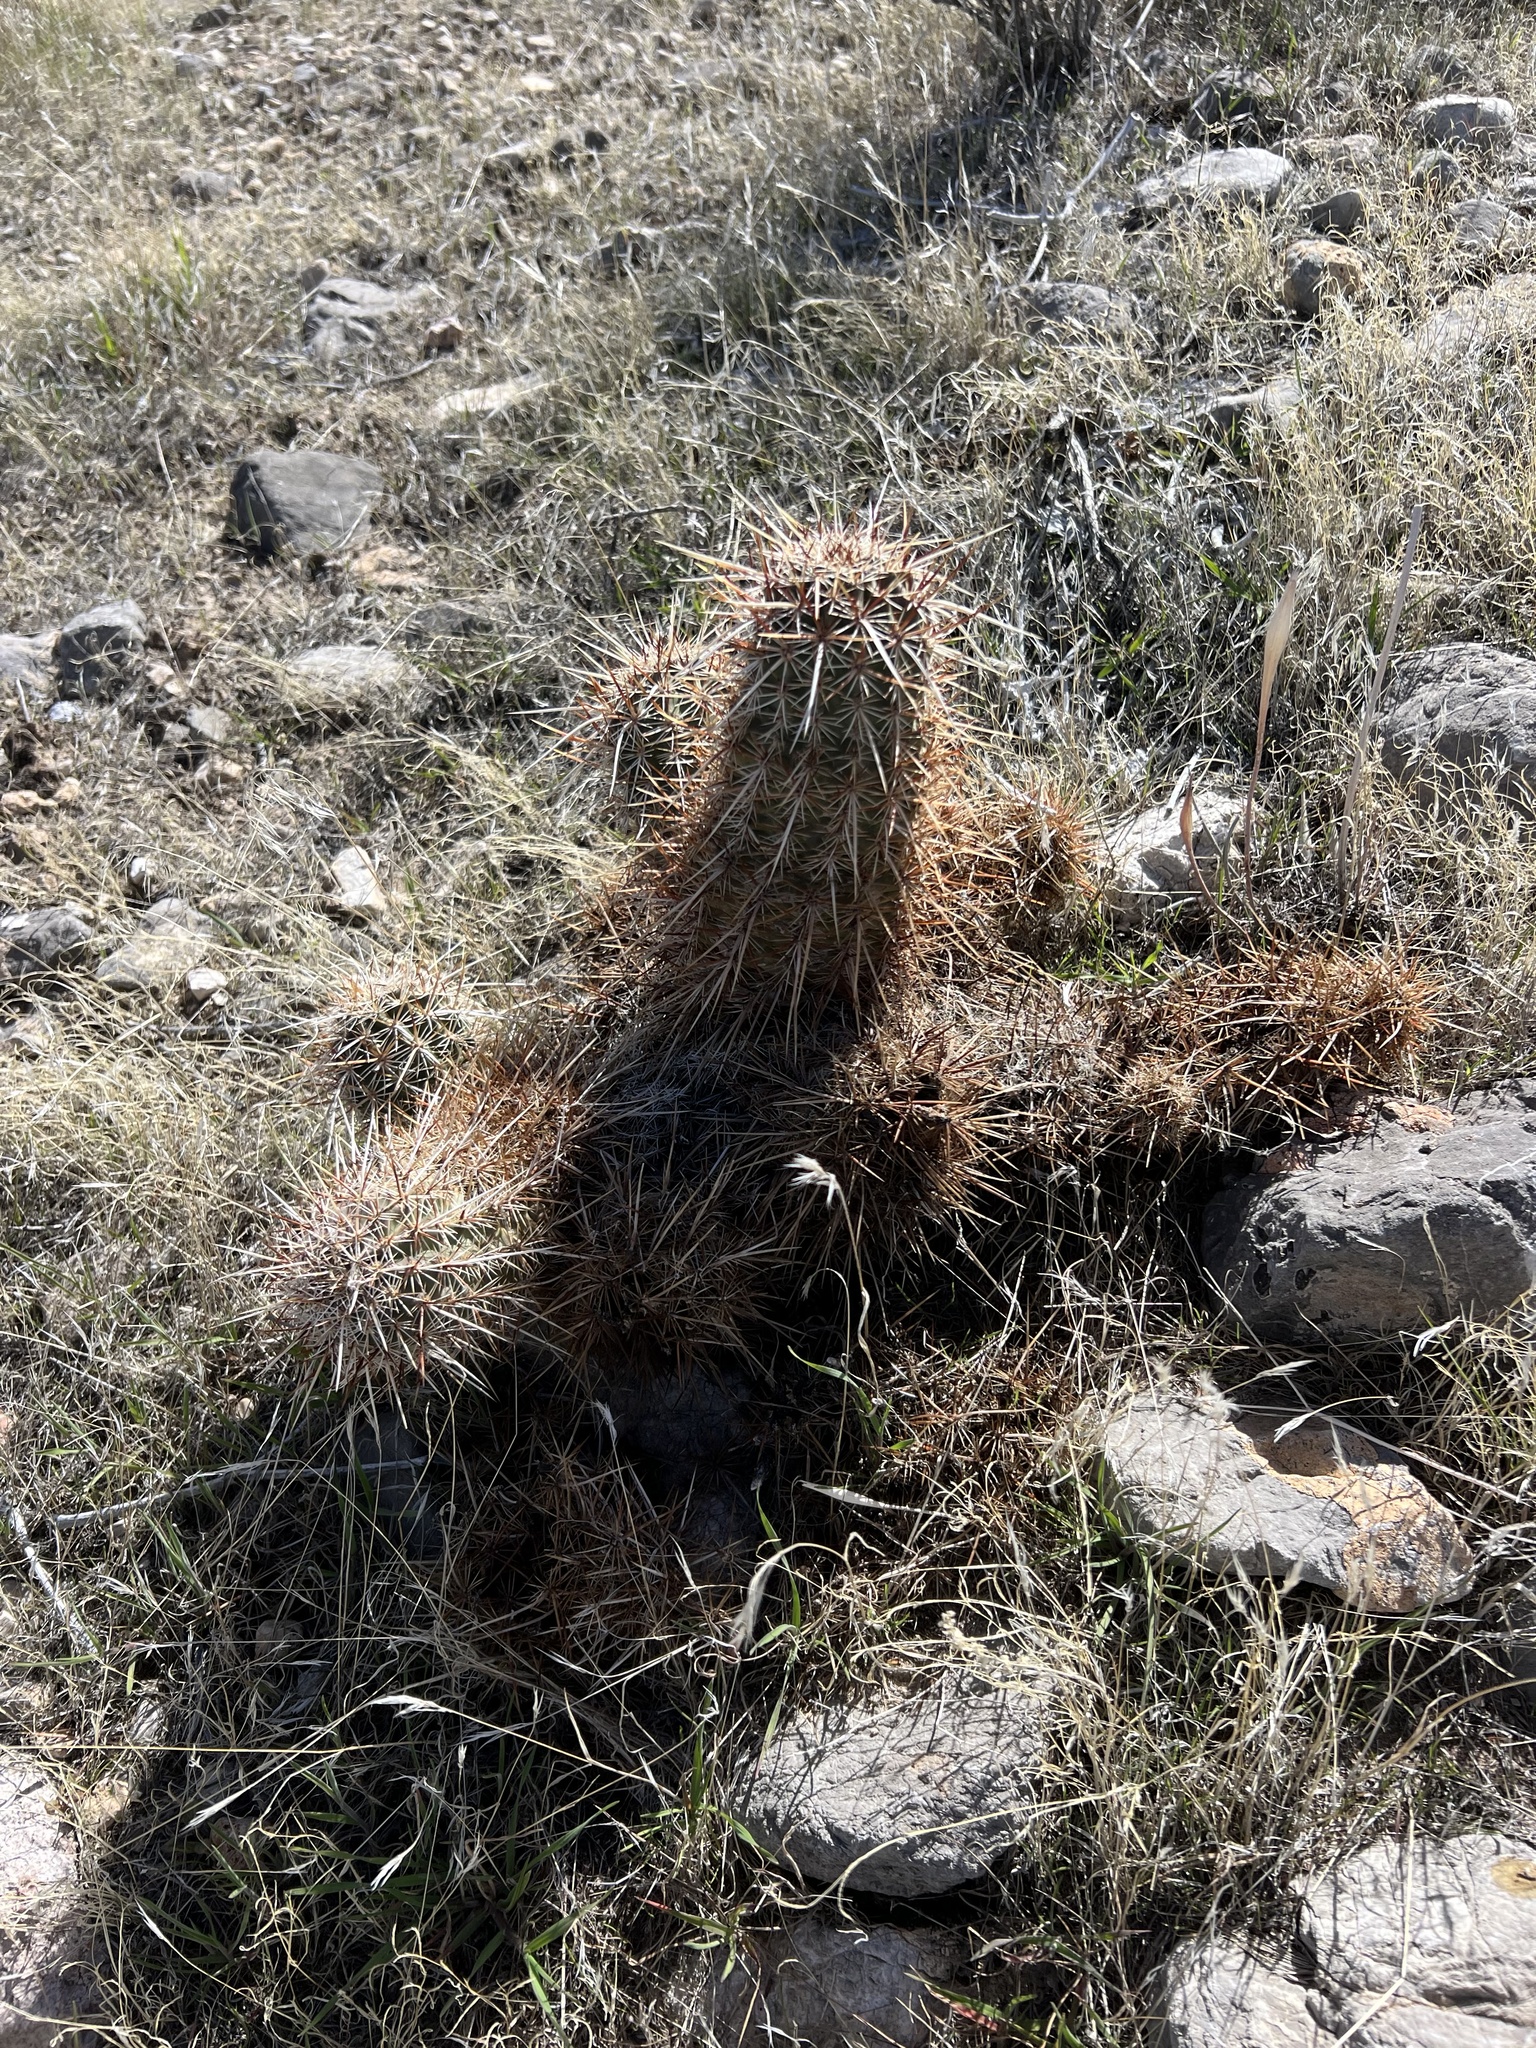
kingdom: Plantae
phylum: Tracheophyta
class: Magnoliopsida
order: Caryophyllales
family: Cactaceae
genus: Echinocereus
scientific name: Echinocereus engelmannii
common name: Engelmann's hedgehog cactus
